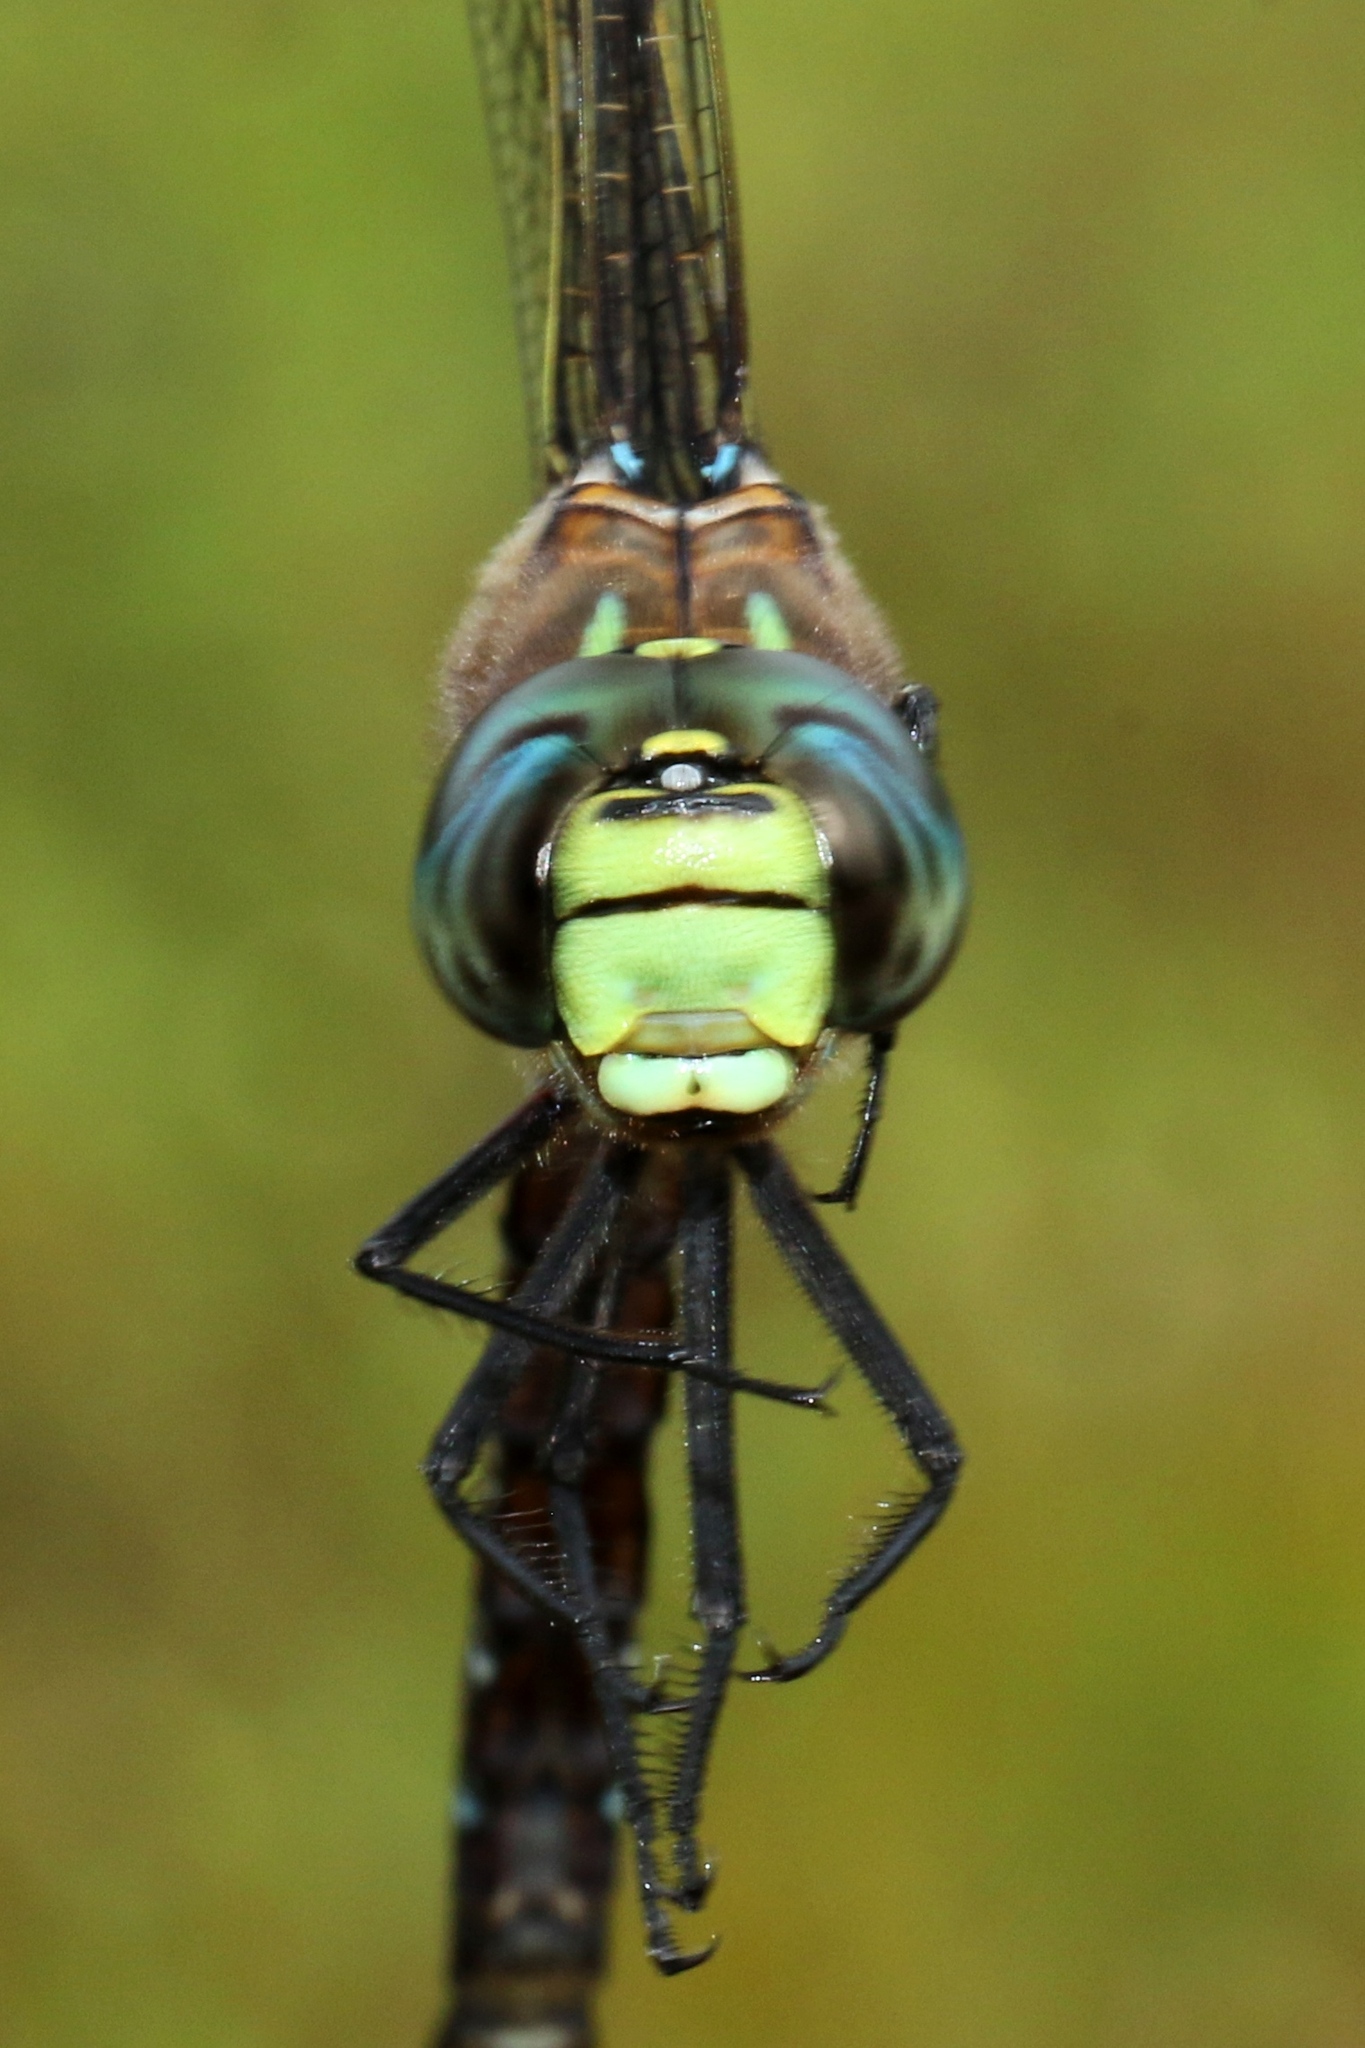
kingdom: Animalia
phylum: Arthropoda
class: Insecta
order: Odonata
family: Aeshnidae
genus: Aeshna
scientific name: Aeshna interrupta
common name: Variable darner
